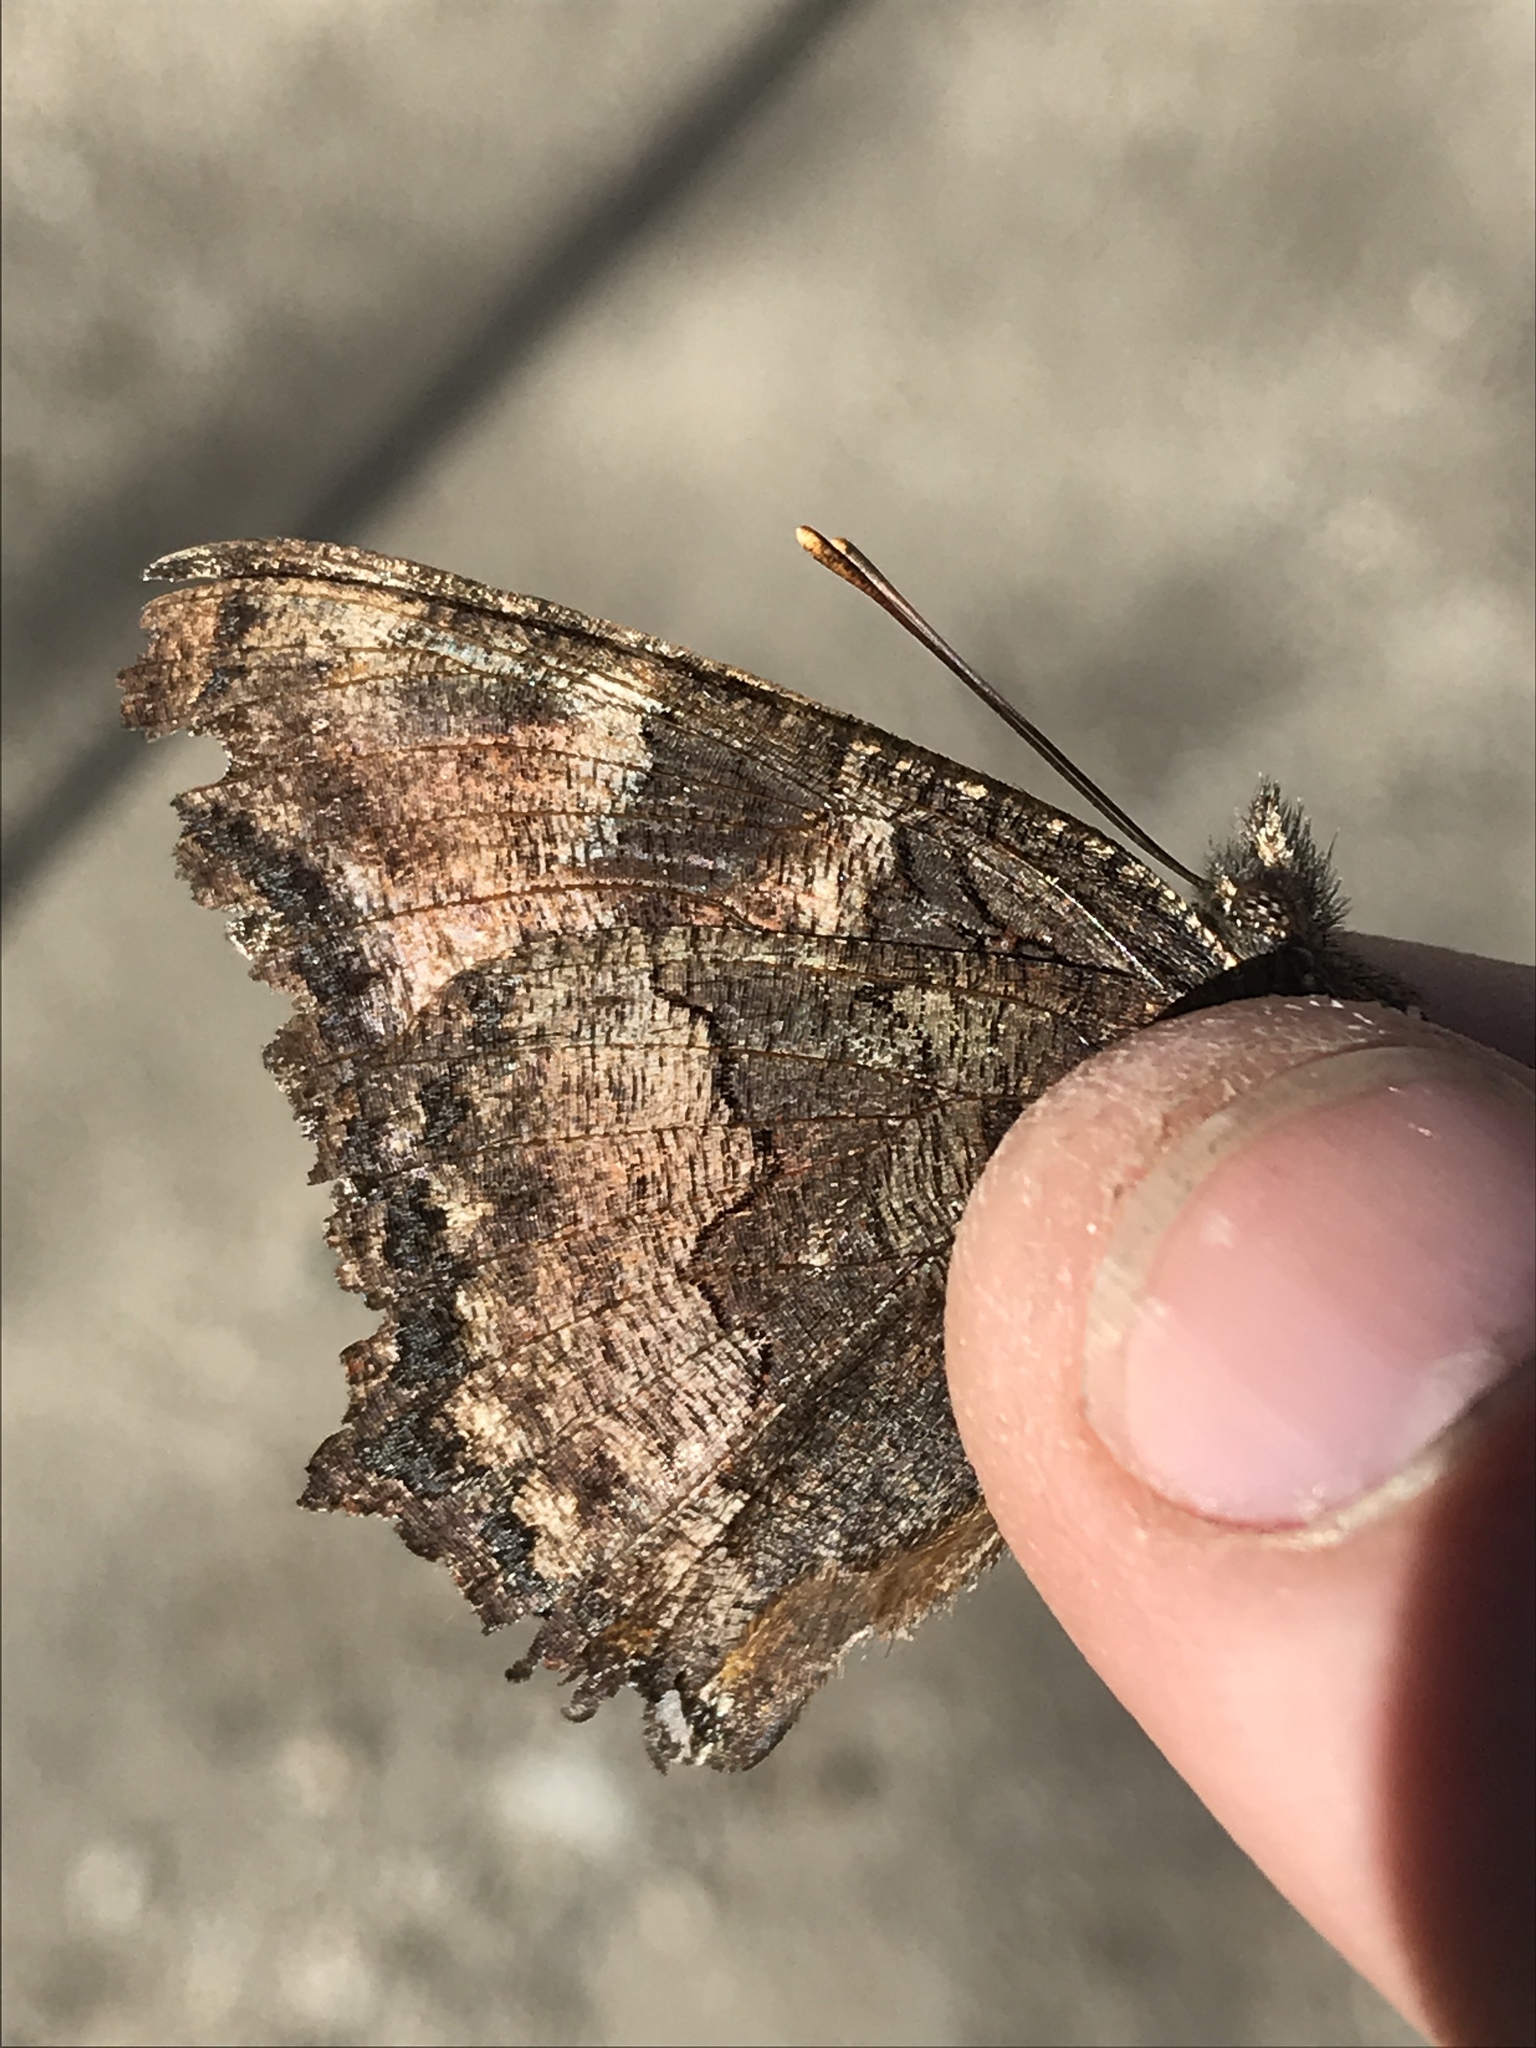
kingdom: Animalia
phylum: Arthropoda
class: Insecta
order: Lepidoptera
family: Nymphalidae
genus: Nymphalis
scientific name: Nymphalis californica
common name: California tortoiseshell
